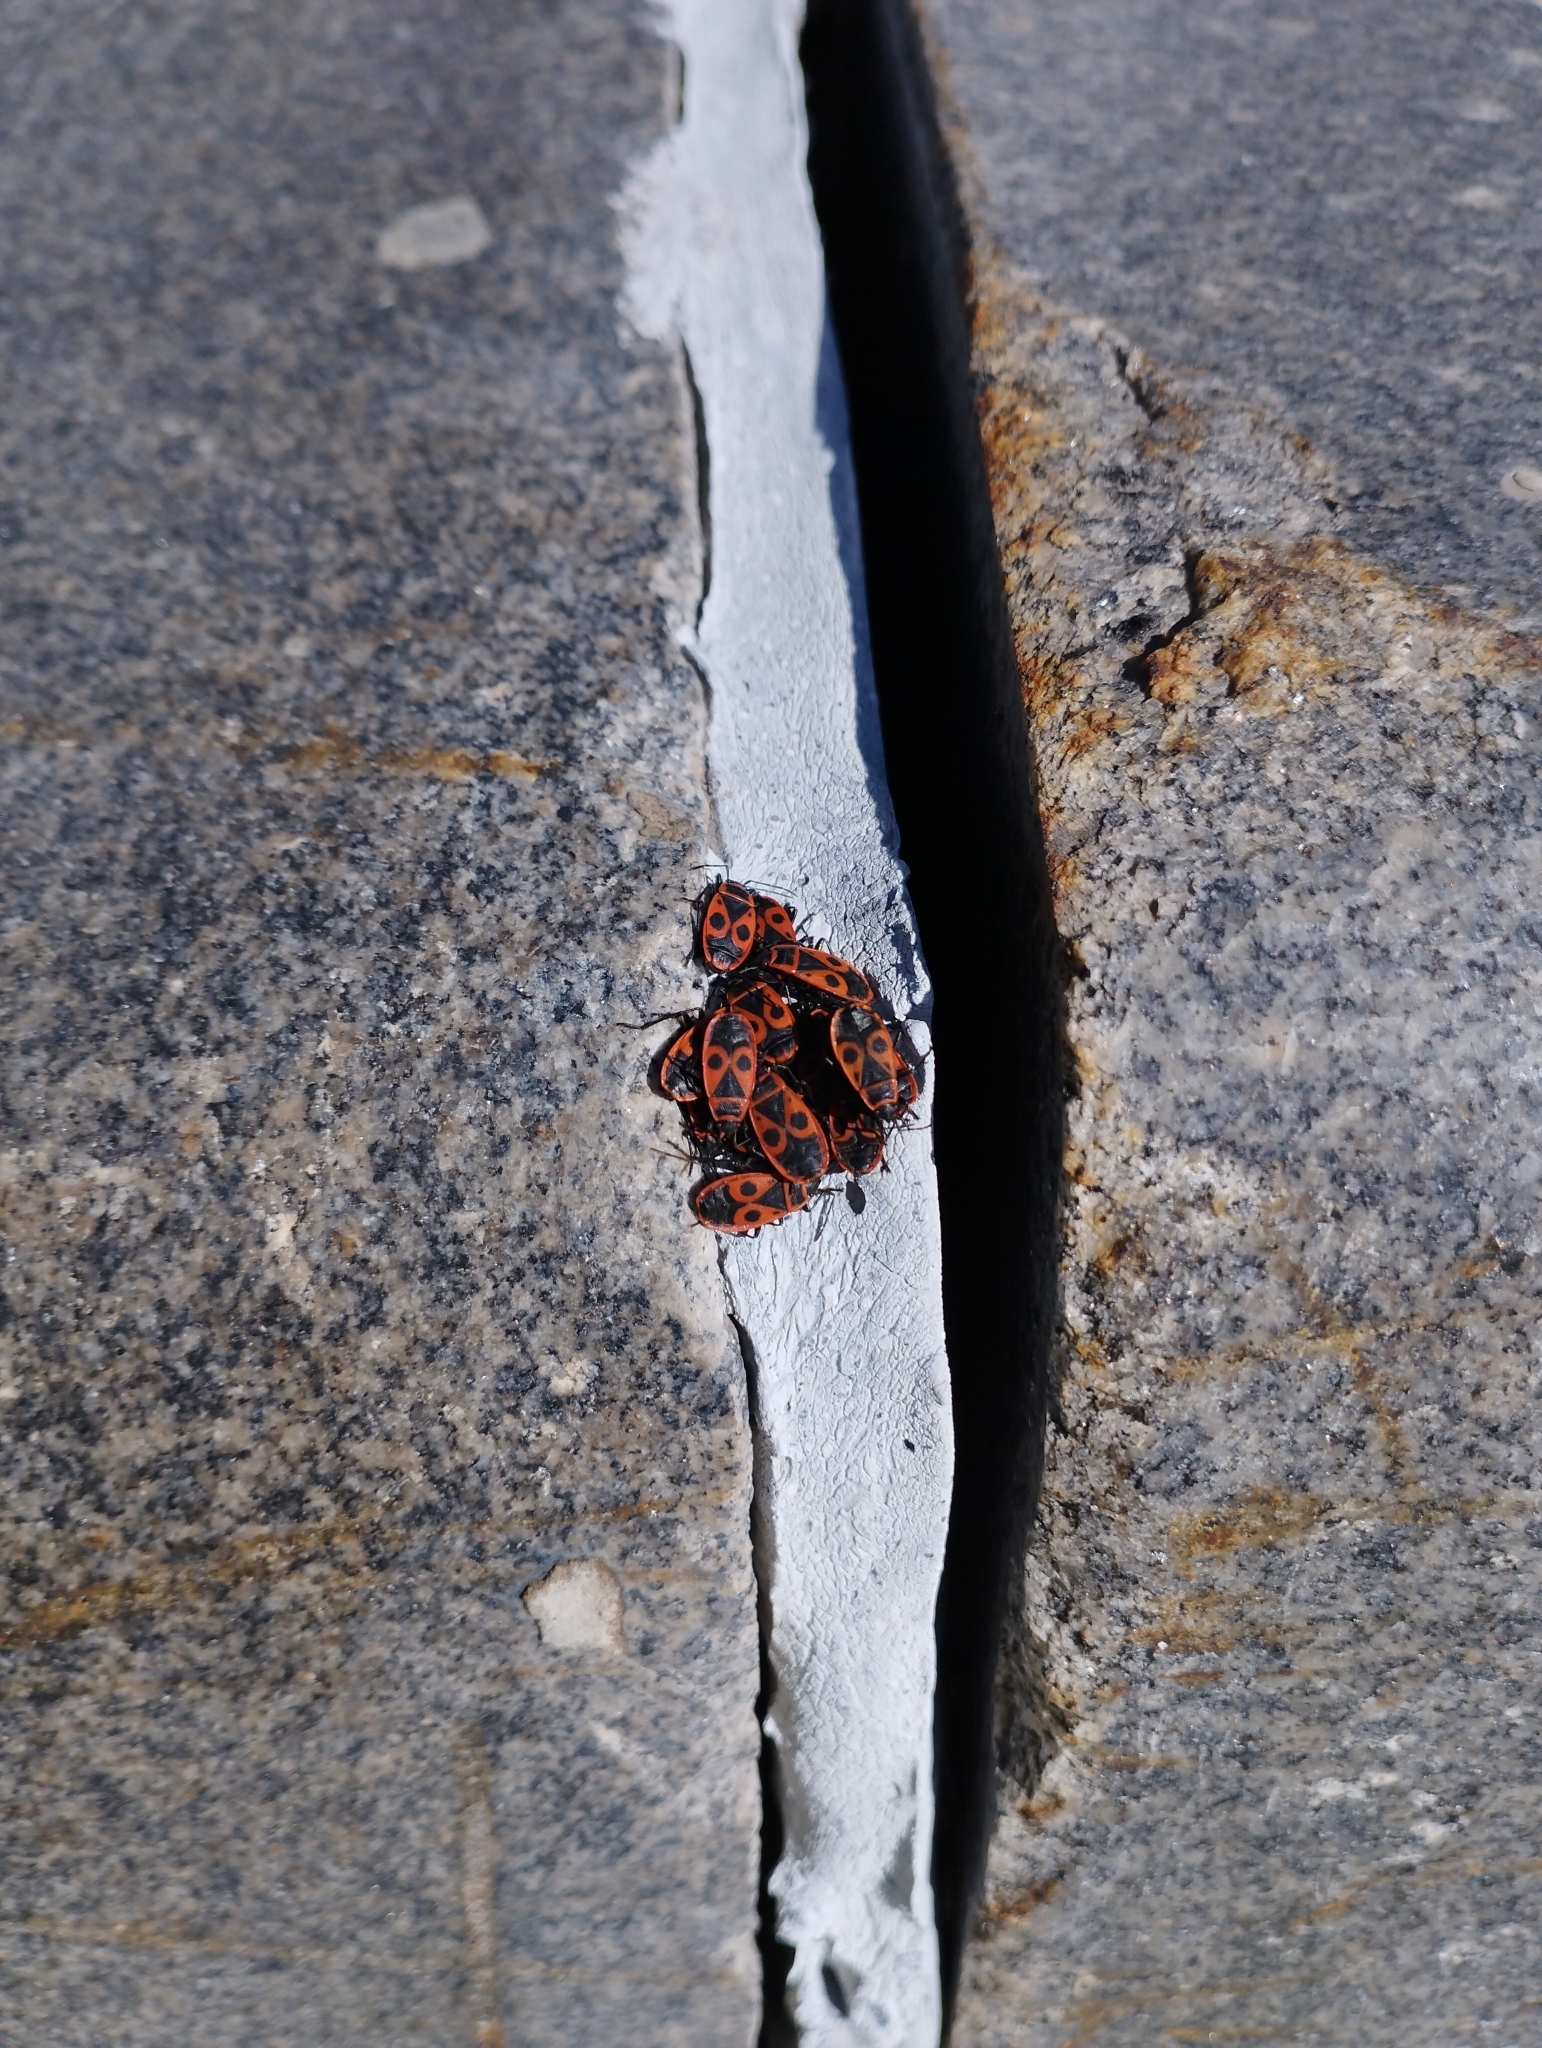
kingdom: Animalia
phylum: Arthropoda
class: Insecta
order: Hemiptera
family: Pyrrhocoridae
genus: Pyrrhocoris
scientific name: Pyrrhocoris apterus
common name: Firebug
